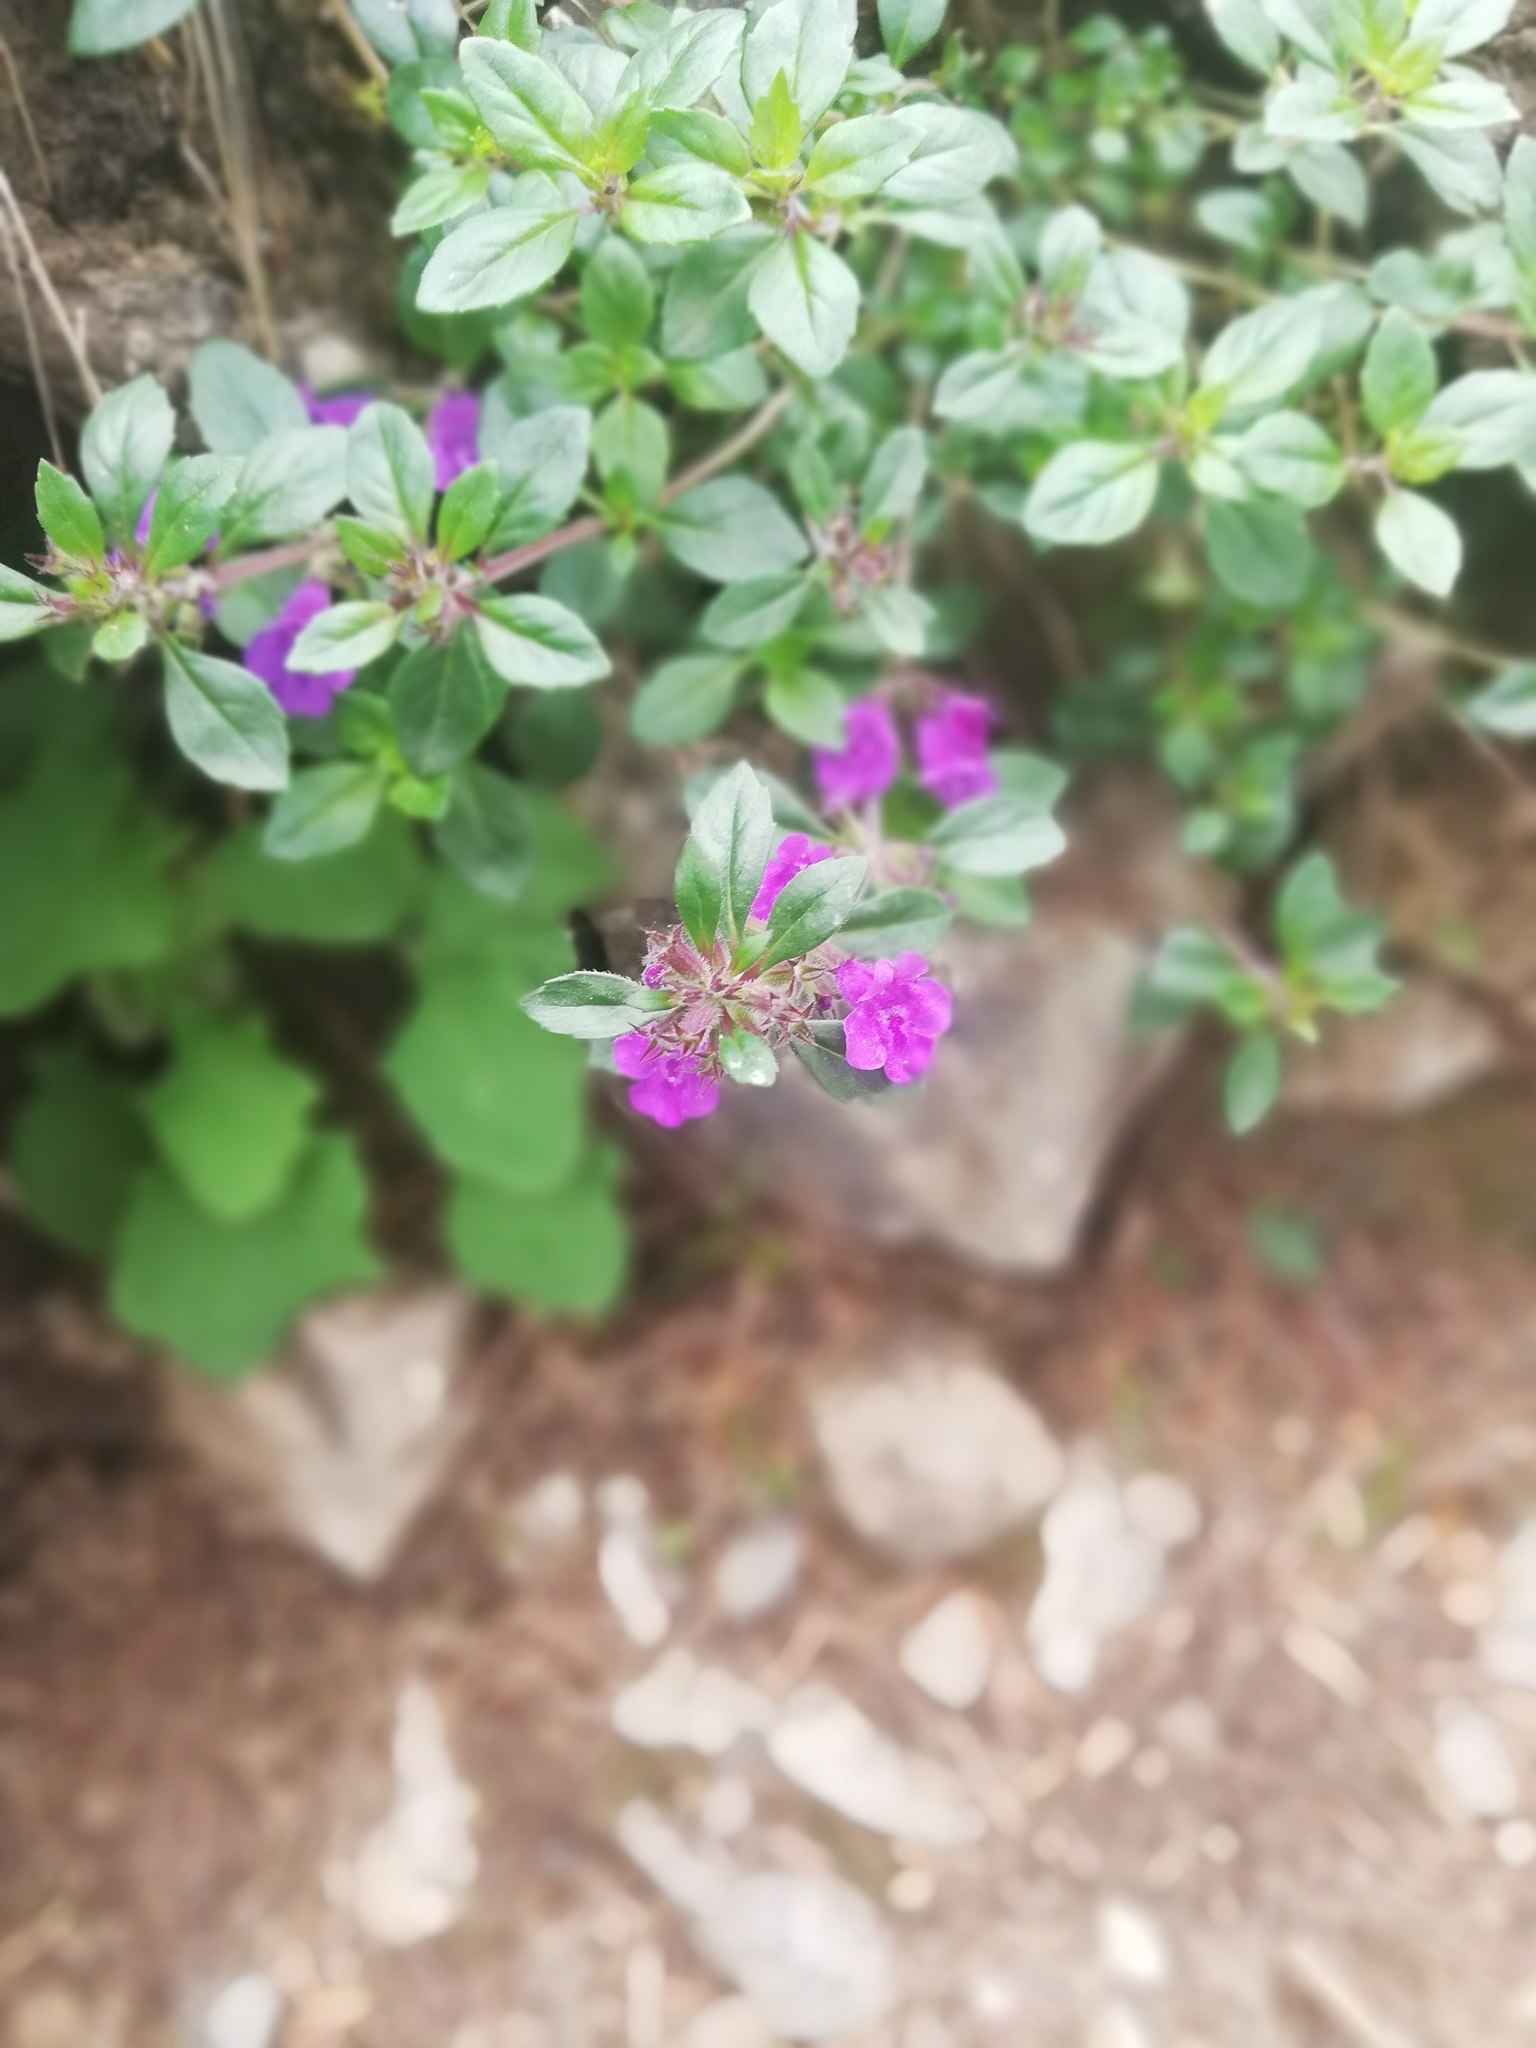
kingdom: Plantae
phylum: Tracheophyta
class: Magnoliopsida
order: Lamiales
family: Lamiaceae
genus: Clinopodium
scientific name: Clinopodium alpinum
